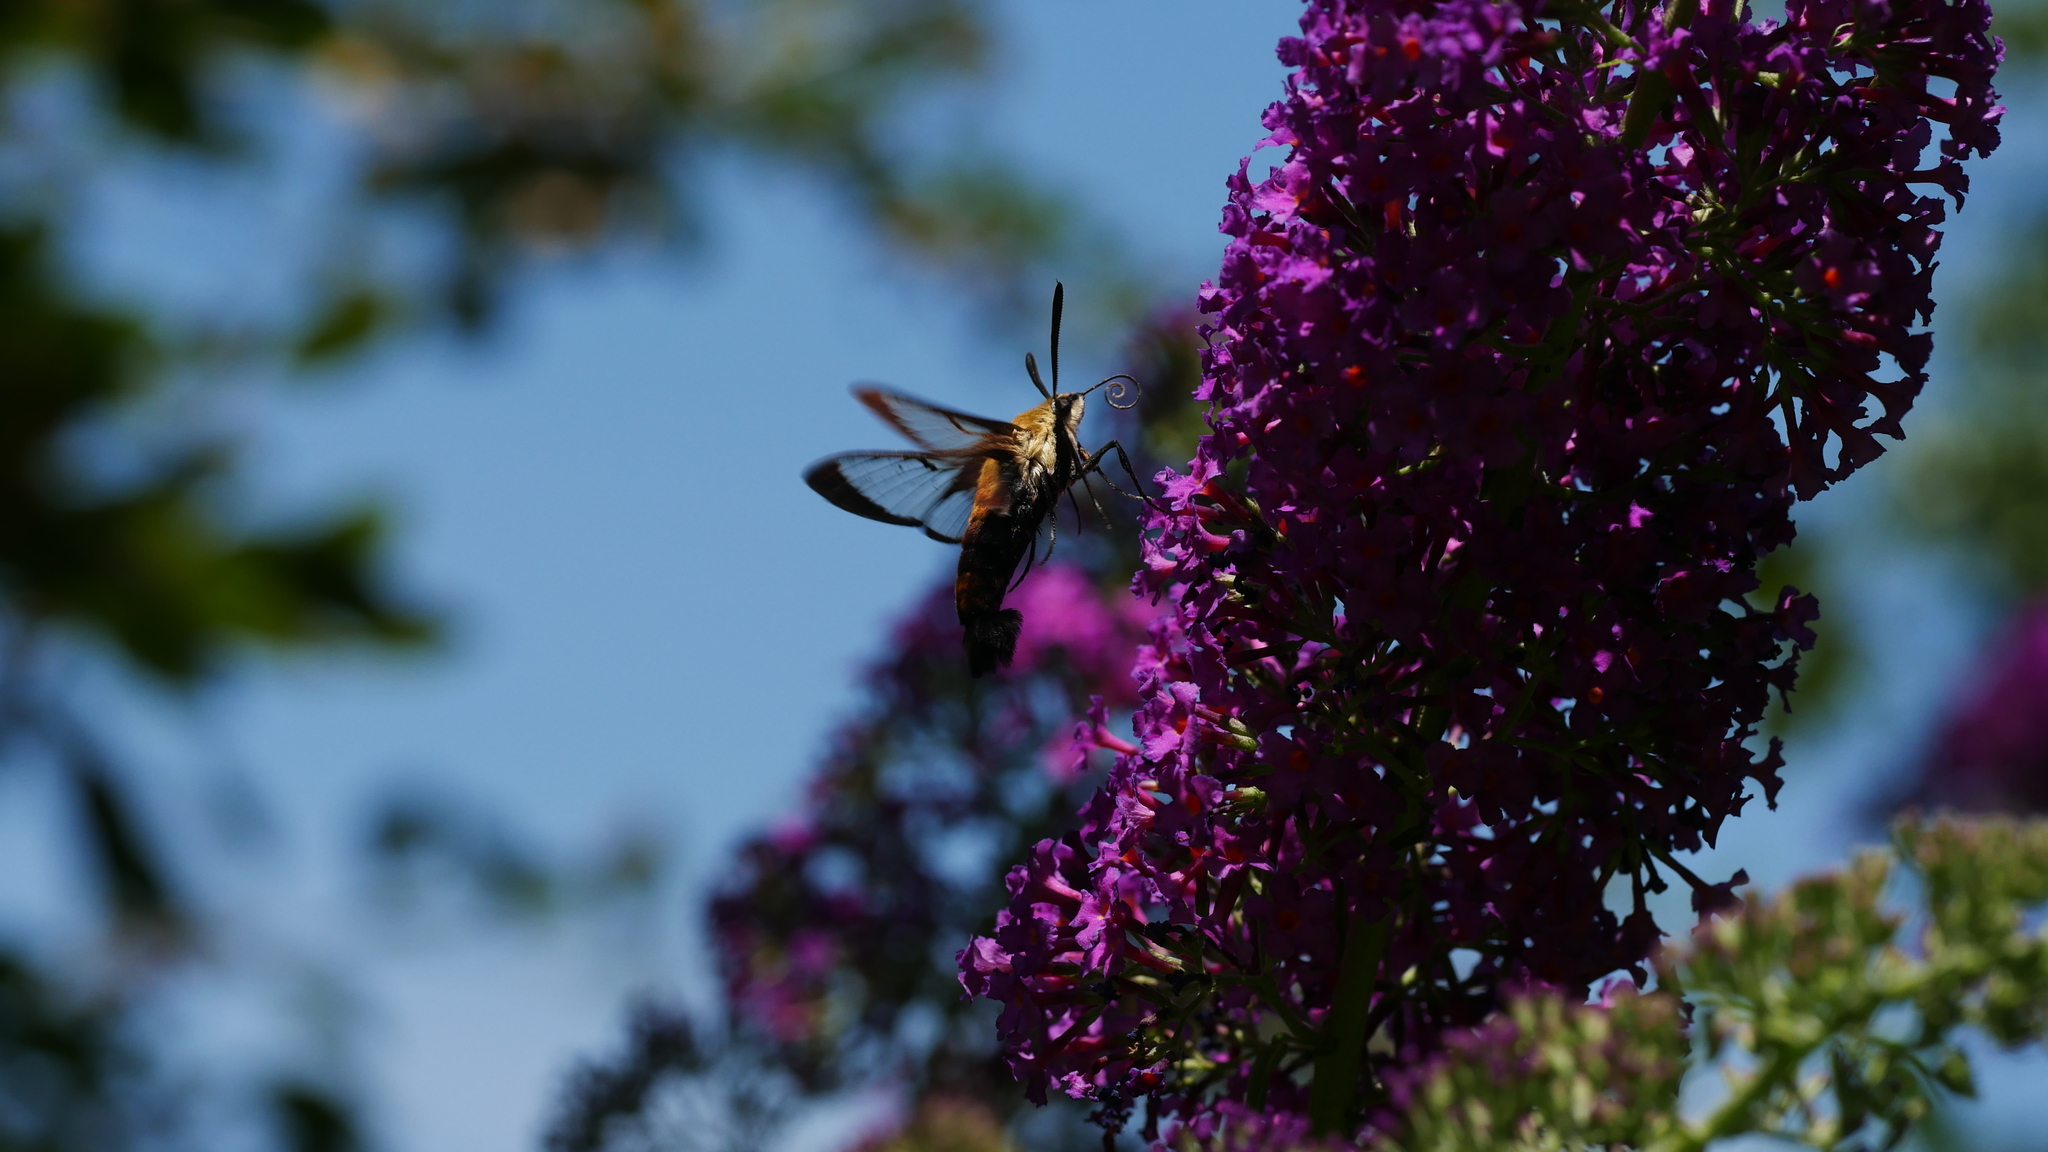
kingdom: Animalia
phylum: Arthropoda
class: Insecta
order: Lepidoptera
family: Sphingidae
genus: Hemaris
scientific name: Hemaris diffinis
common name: Bumblebee moth
